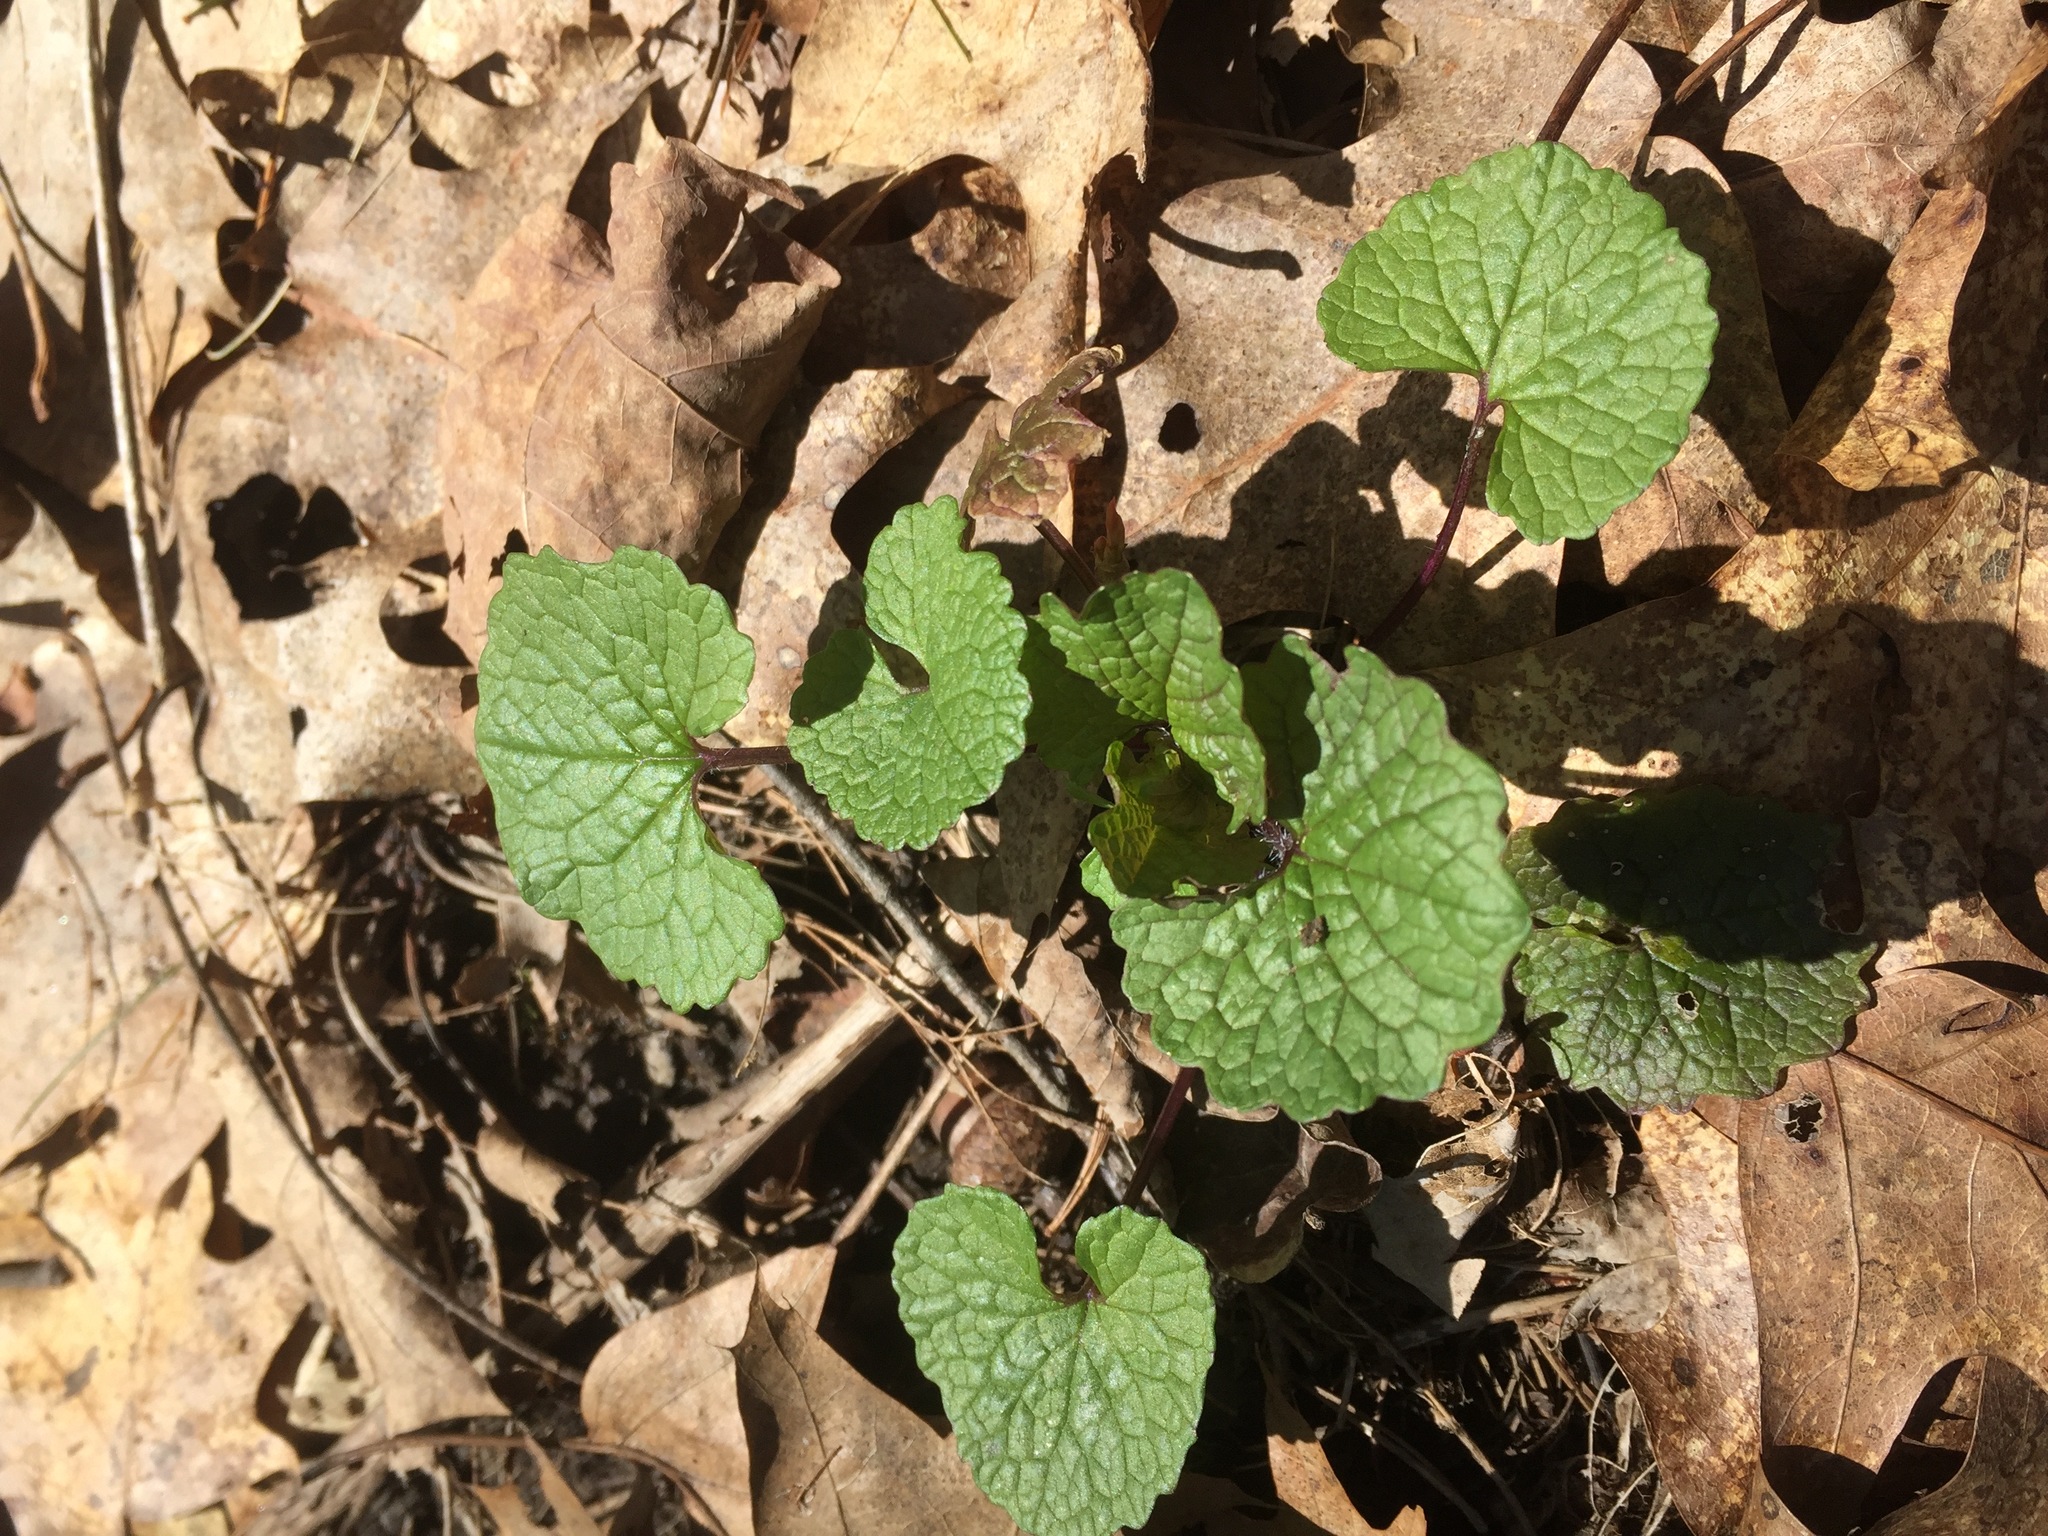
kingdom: Plantae
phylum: Tracheophyta
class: Magnoliopsida
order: Brassicales
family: Brassicaceae
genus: Alliaria
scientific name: Alliaria petiolata
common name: Garlic mustard
